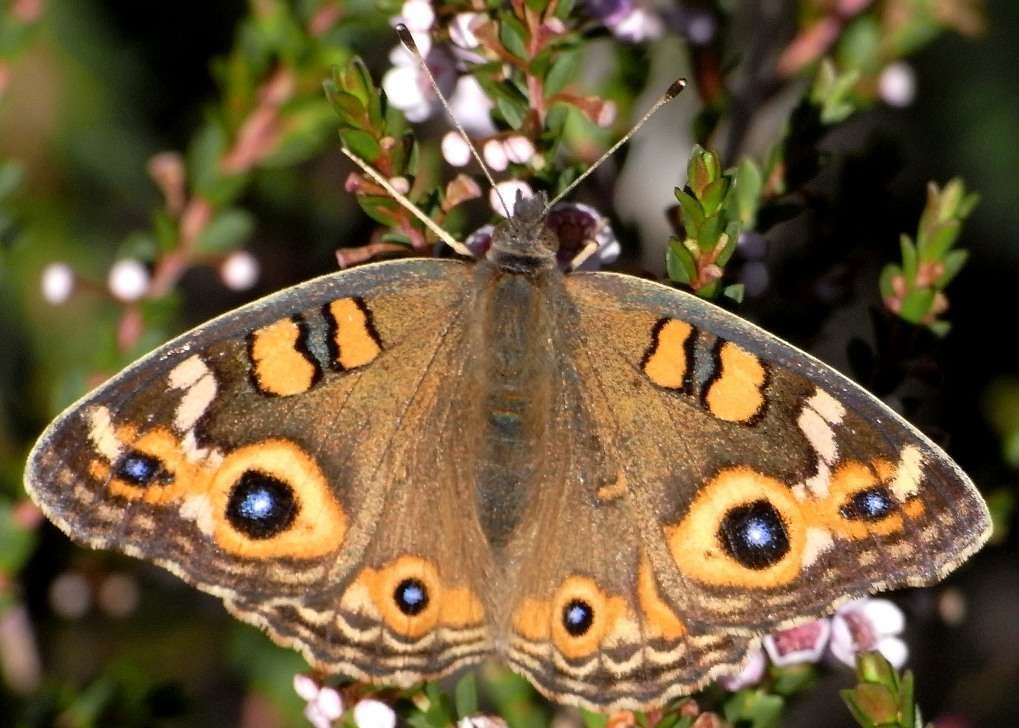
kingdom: Animalia
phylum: Arthropoda
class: Insecta
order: Lepidoptera
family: Nymphalidae
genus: Junonia
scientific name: Junonia villida
